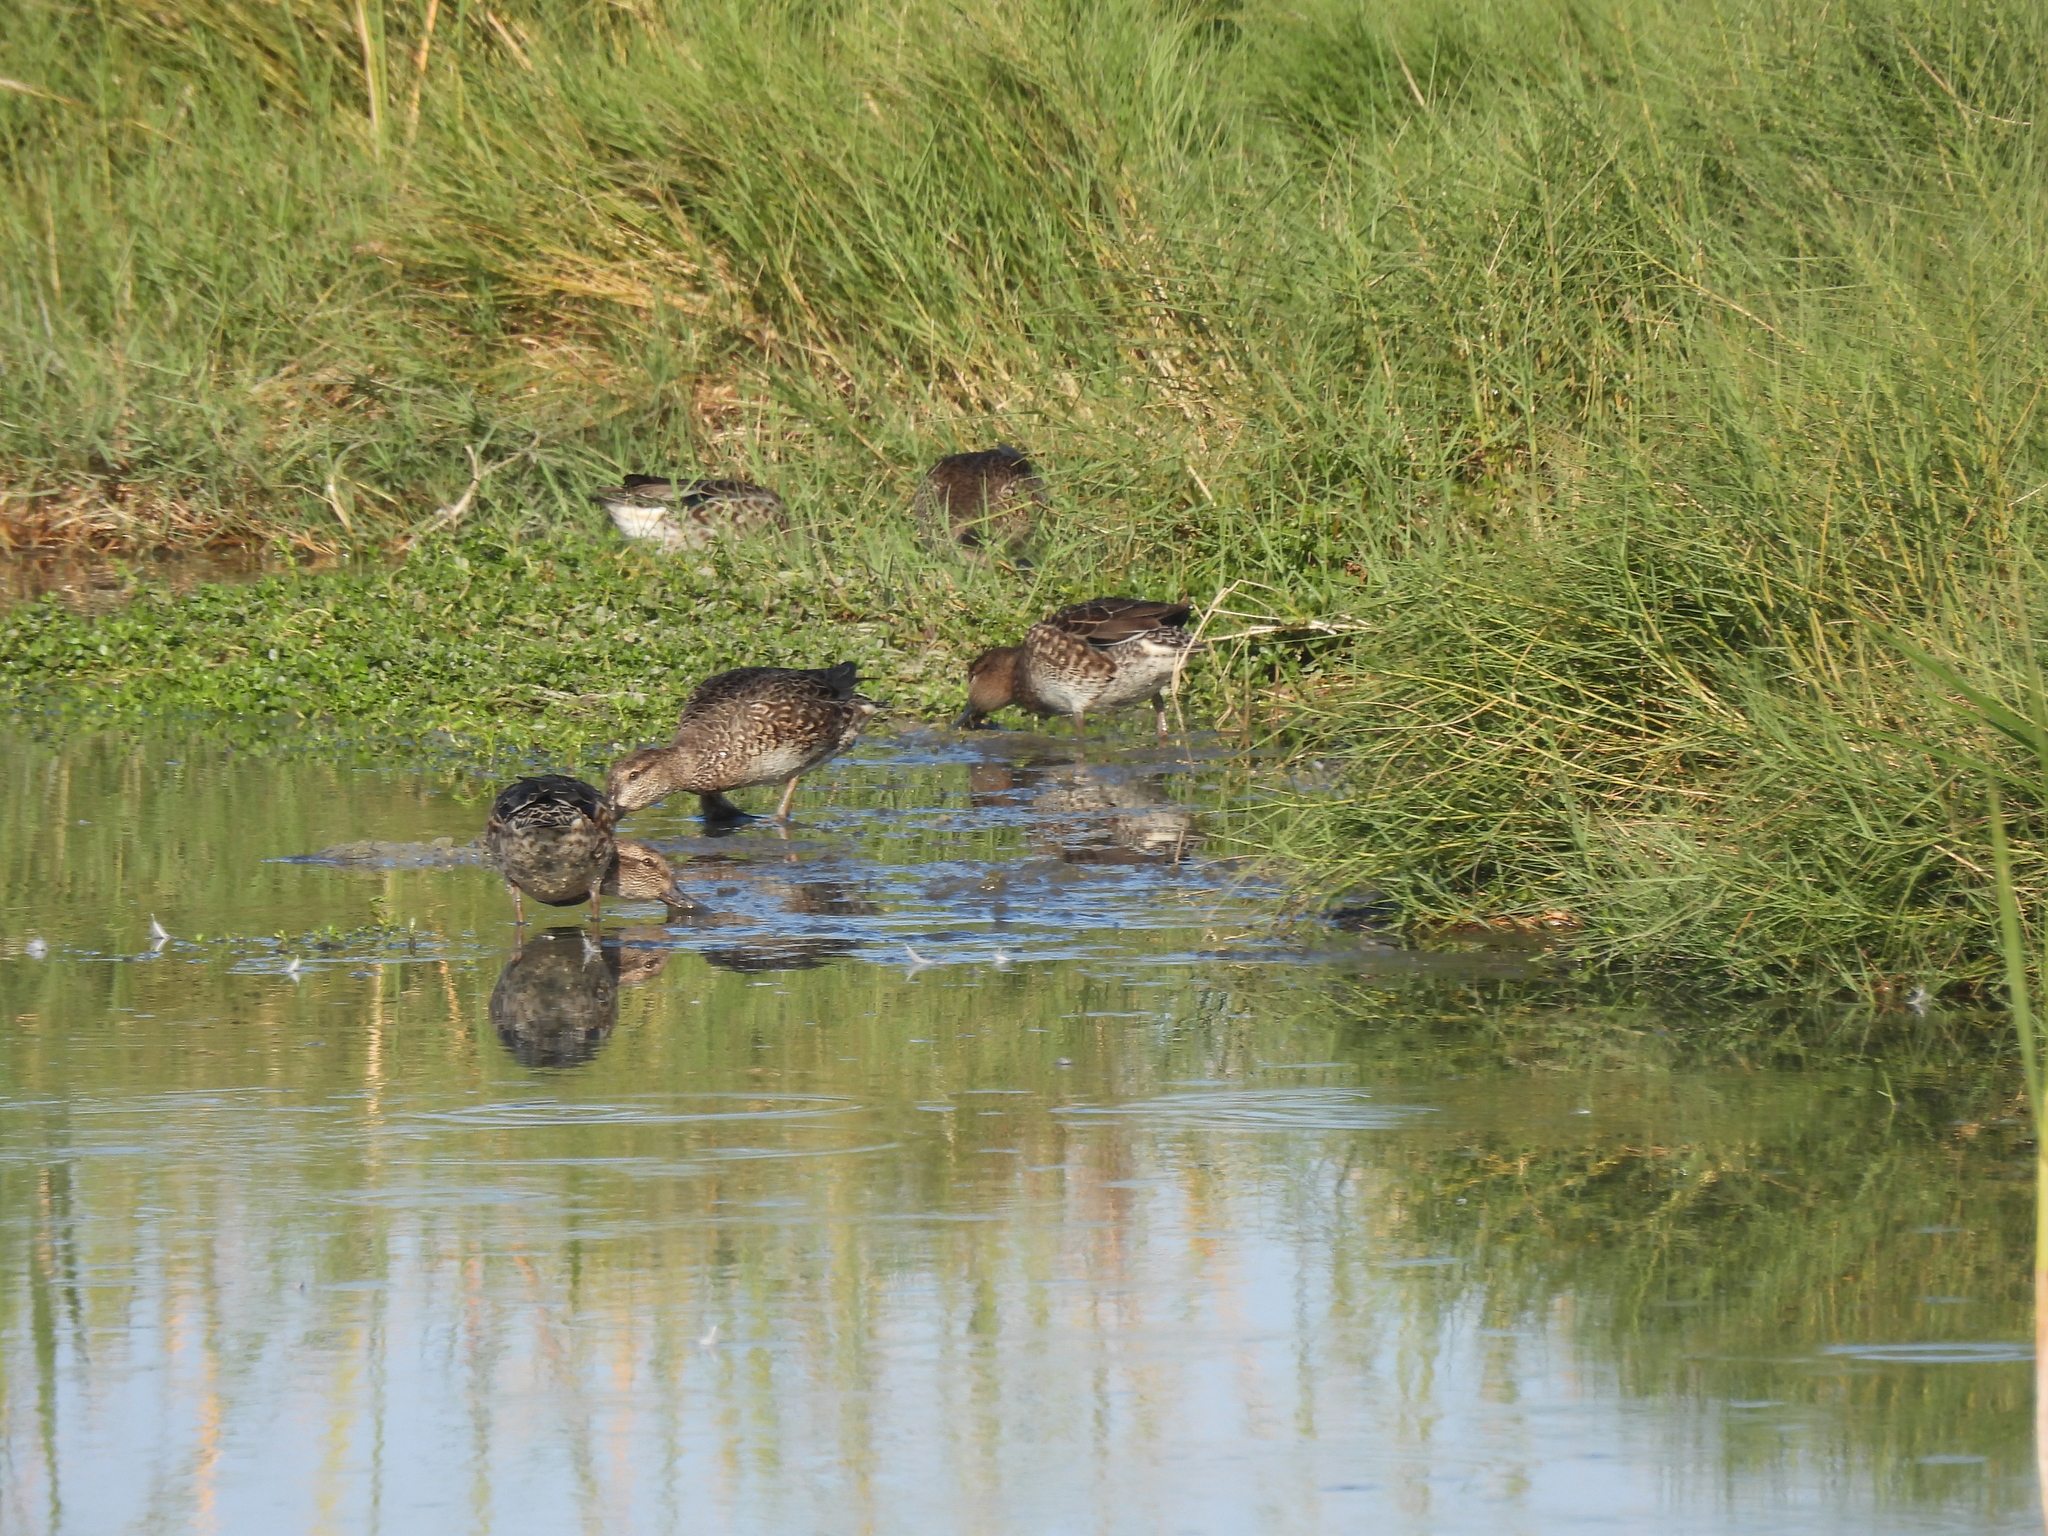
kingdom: Animalia
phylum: Chordata
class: Aves
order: Anseriformes
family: Anatidae
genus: Anas
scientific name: Anas crecca
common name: Eurasian teal
